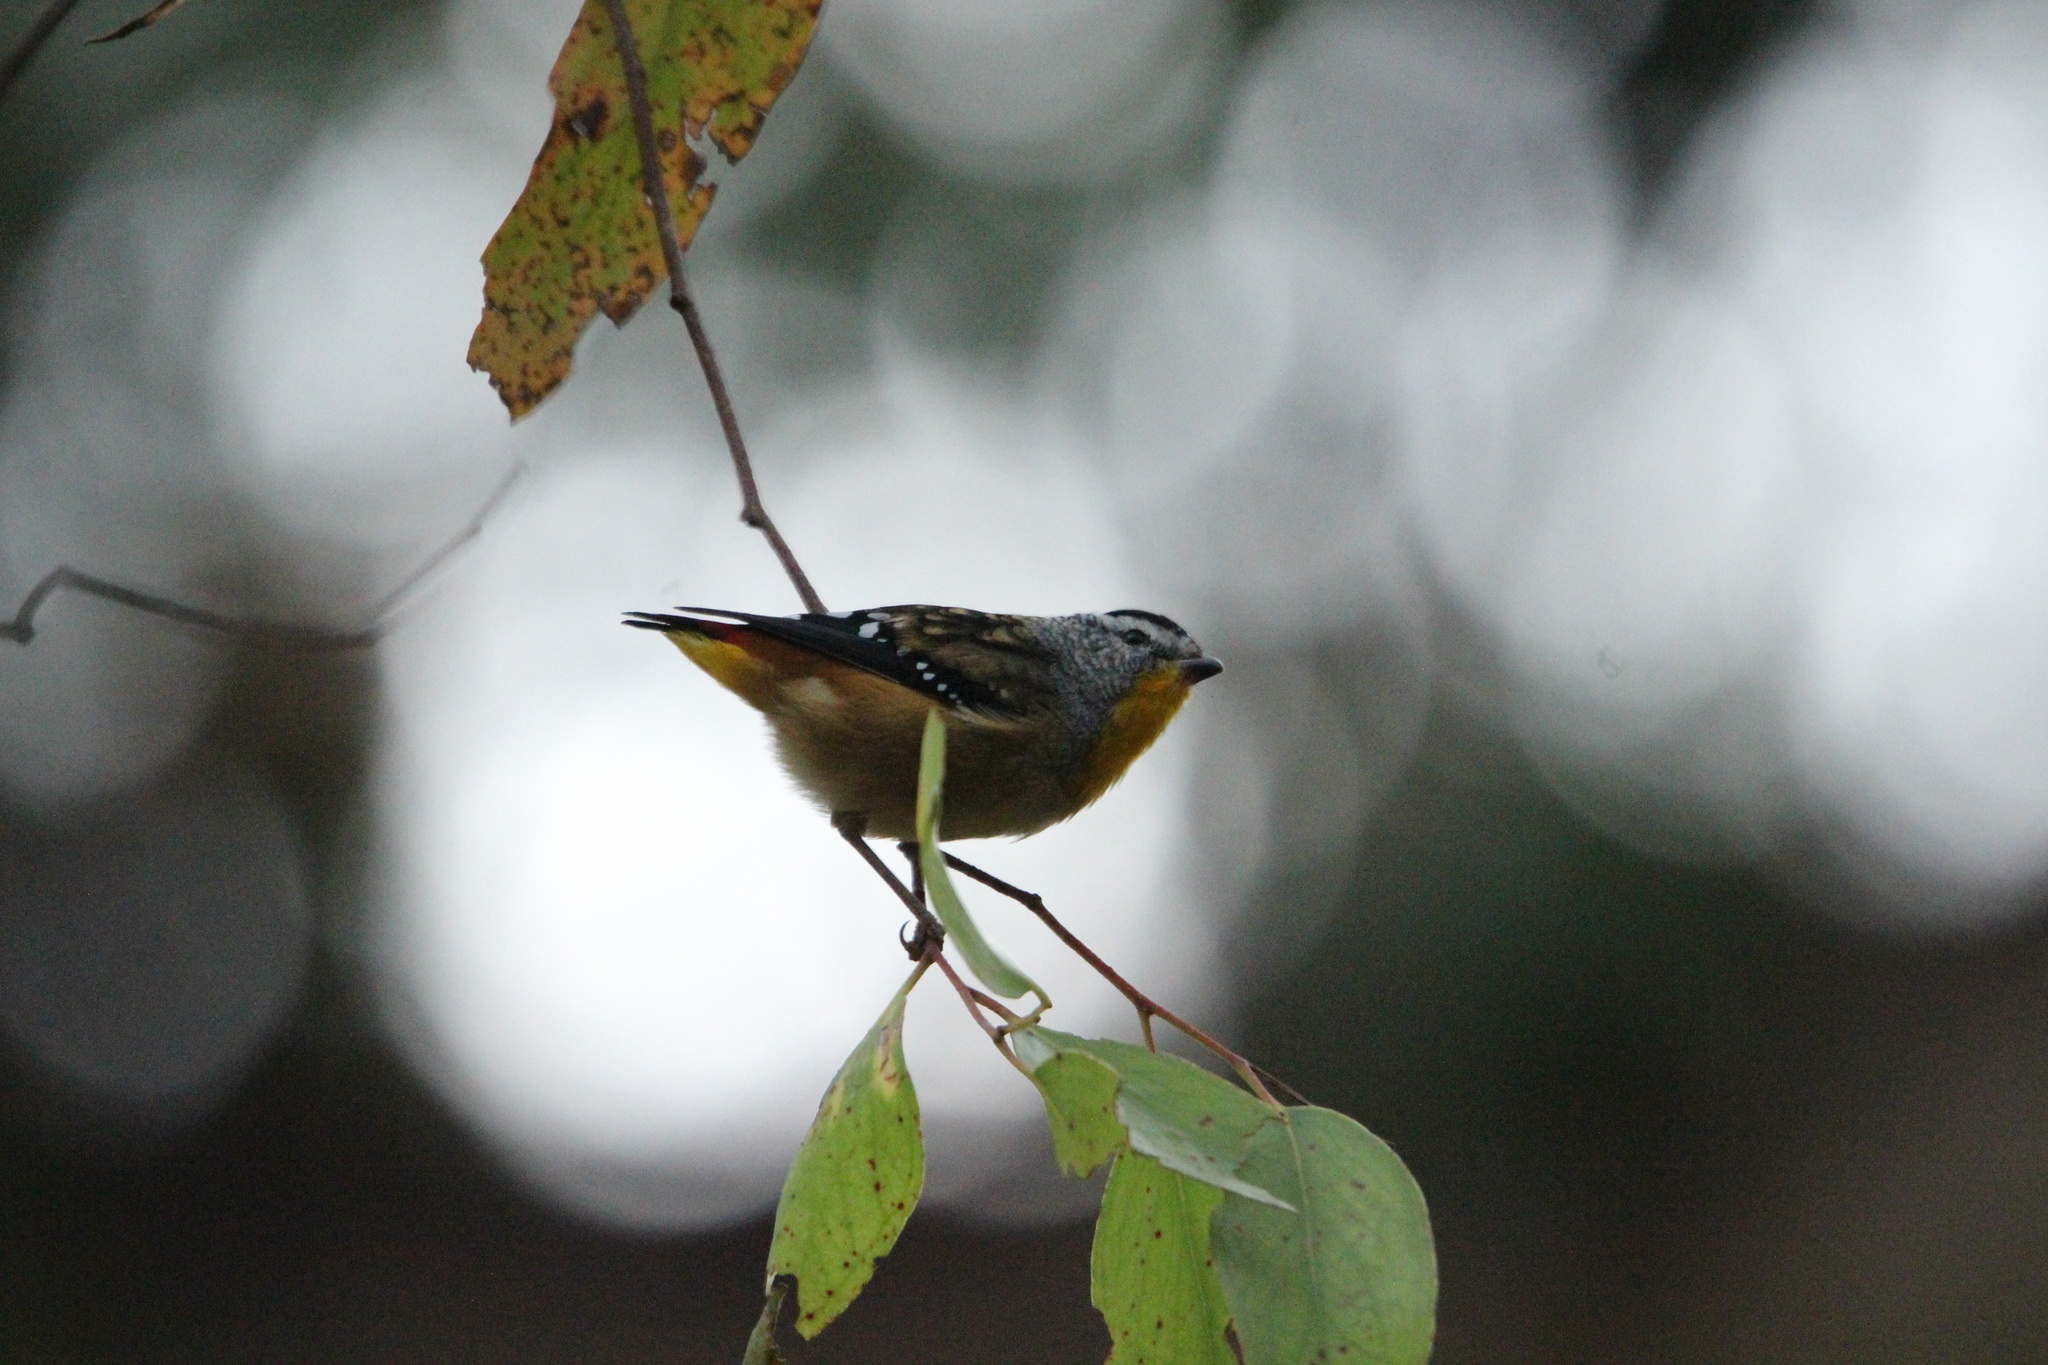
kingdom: Animalia
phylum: Chordata
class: Aves
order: Passeriformes
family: Pardalotidae
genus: Pardalotus
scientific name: Pardalotus punctatus
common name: Spotted pardalote
